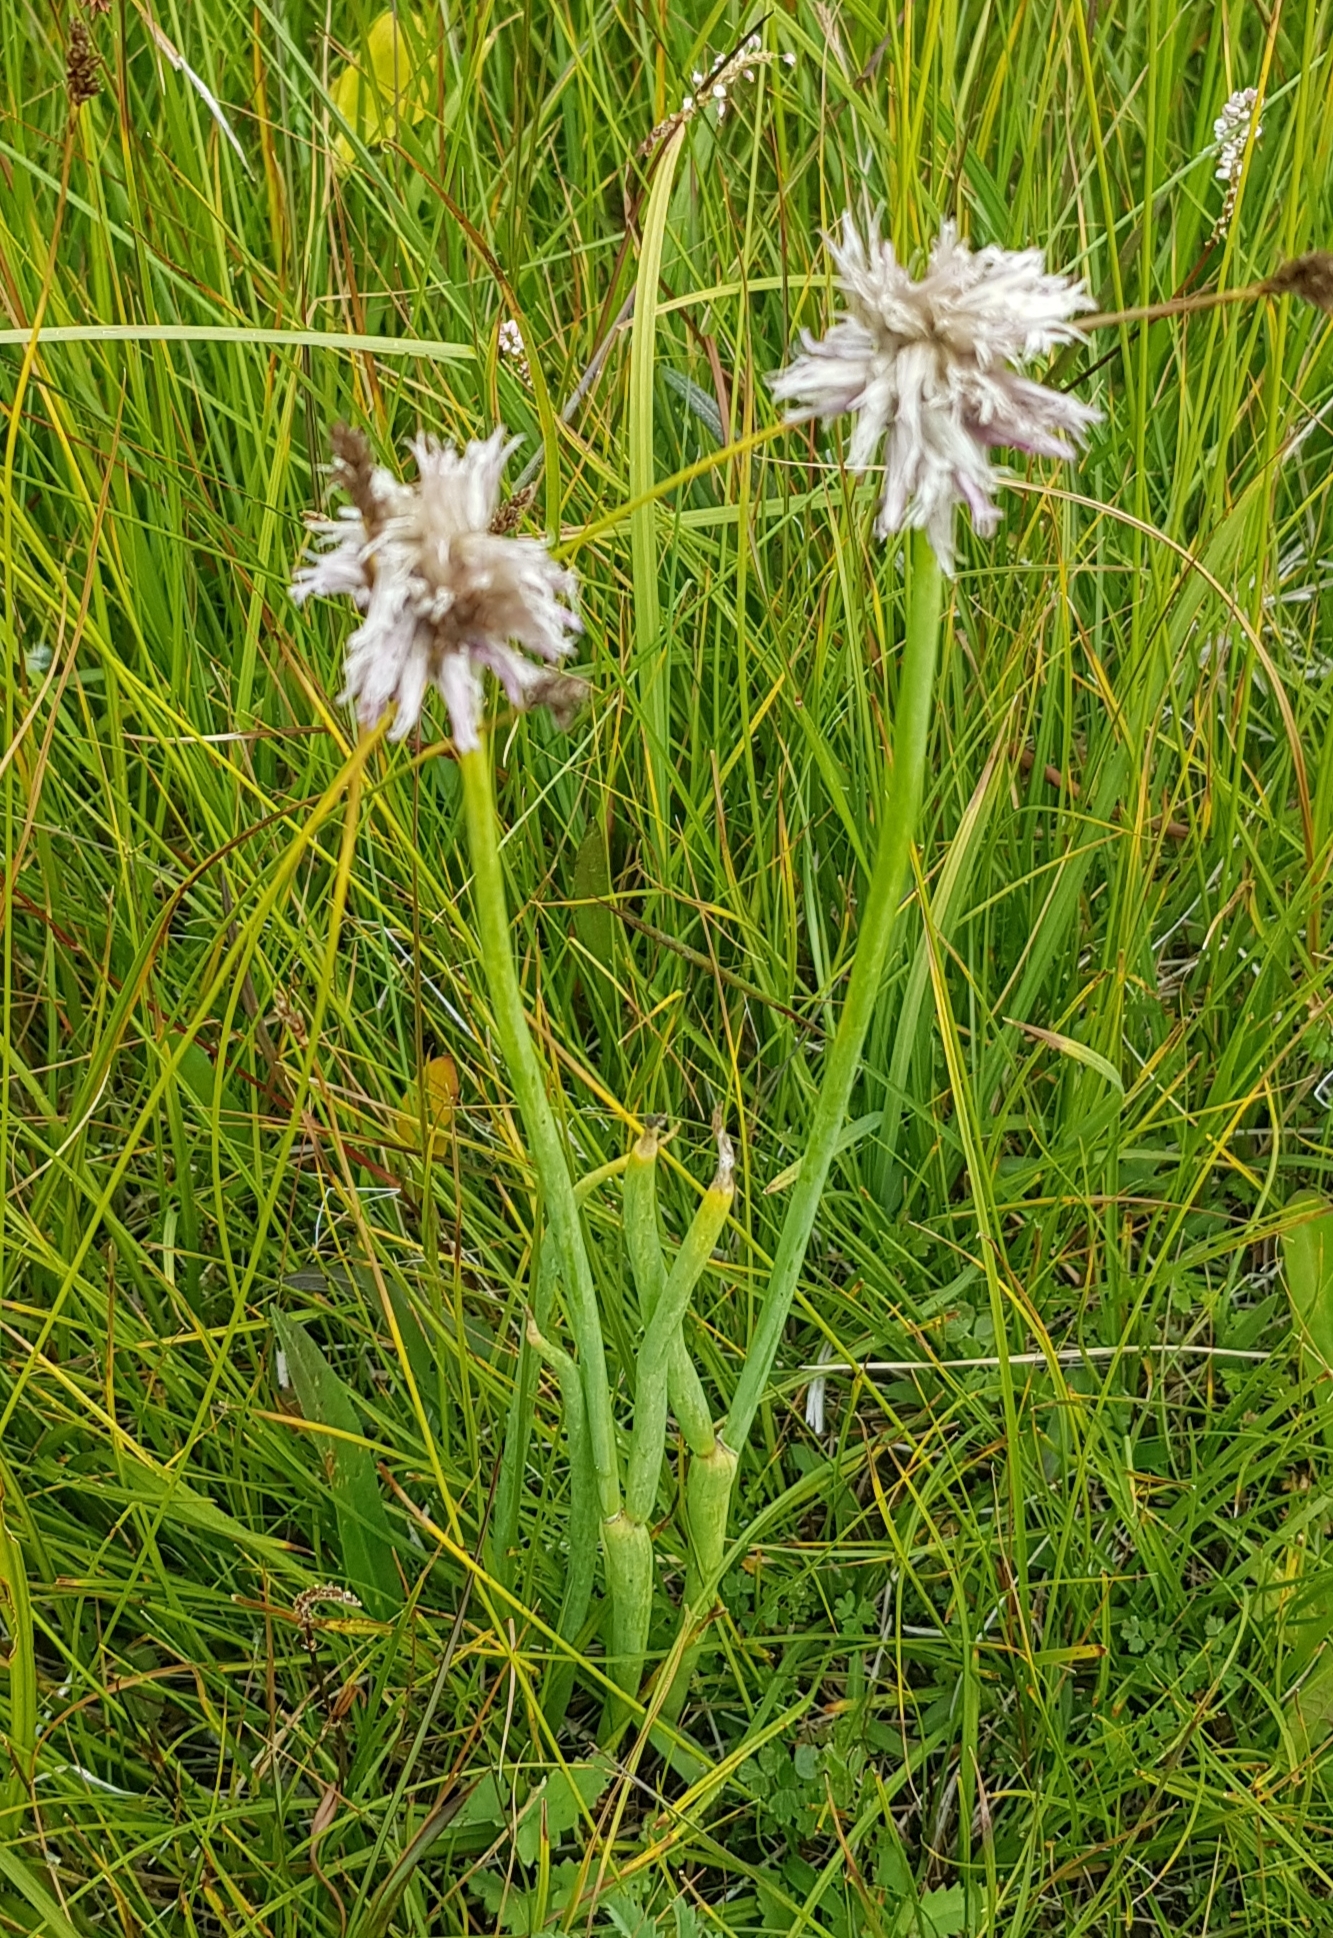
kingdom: Plantae
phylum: Tracheophyta
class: Liliopsida
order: Asparagales
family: Amaryllidaceae
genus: Allium
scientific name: Allium schoenoprasum
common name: Chives
